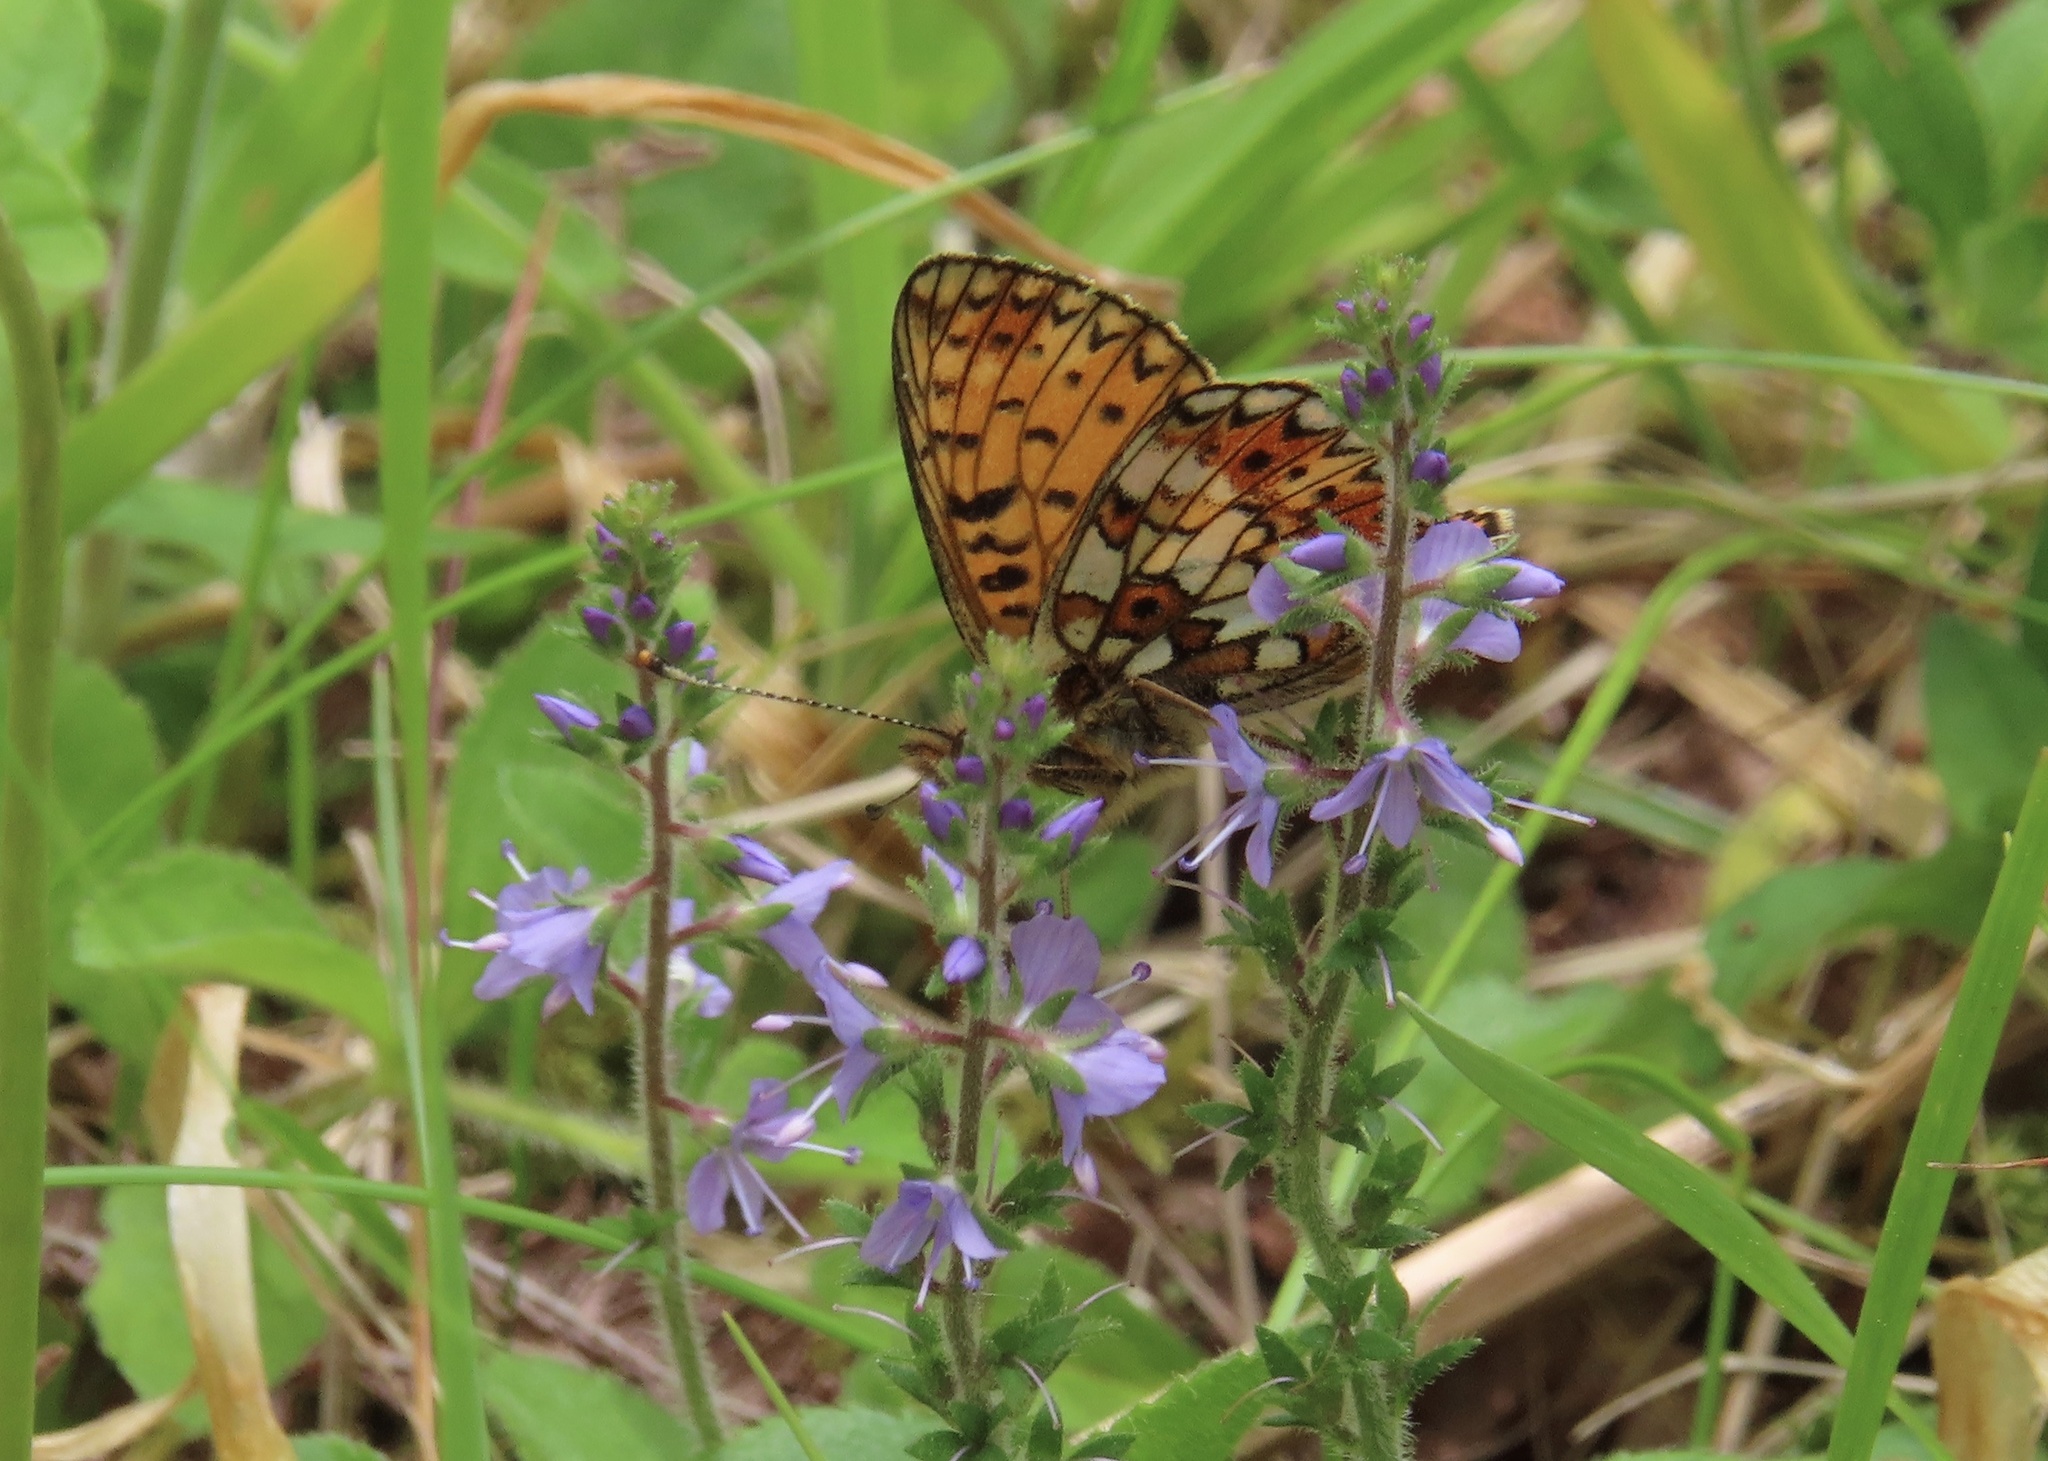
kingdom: Animalia
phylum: Arthropoda
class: Insecta
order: Lepidoptera
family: Nymphalidae
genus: Boloria
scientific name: Boloria selene
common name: Small pearl-bordered fritillary
